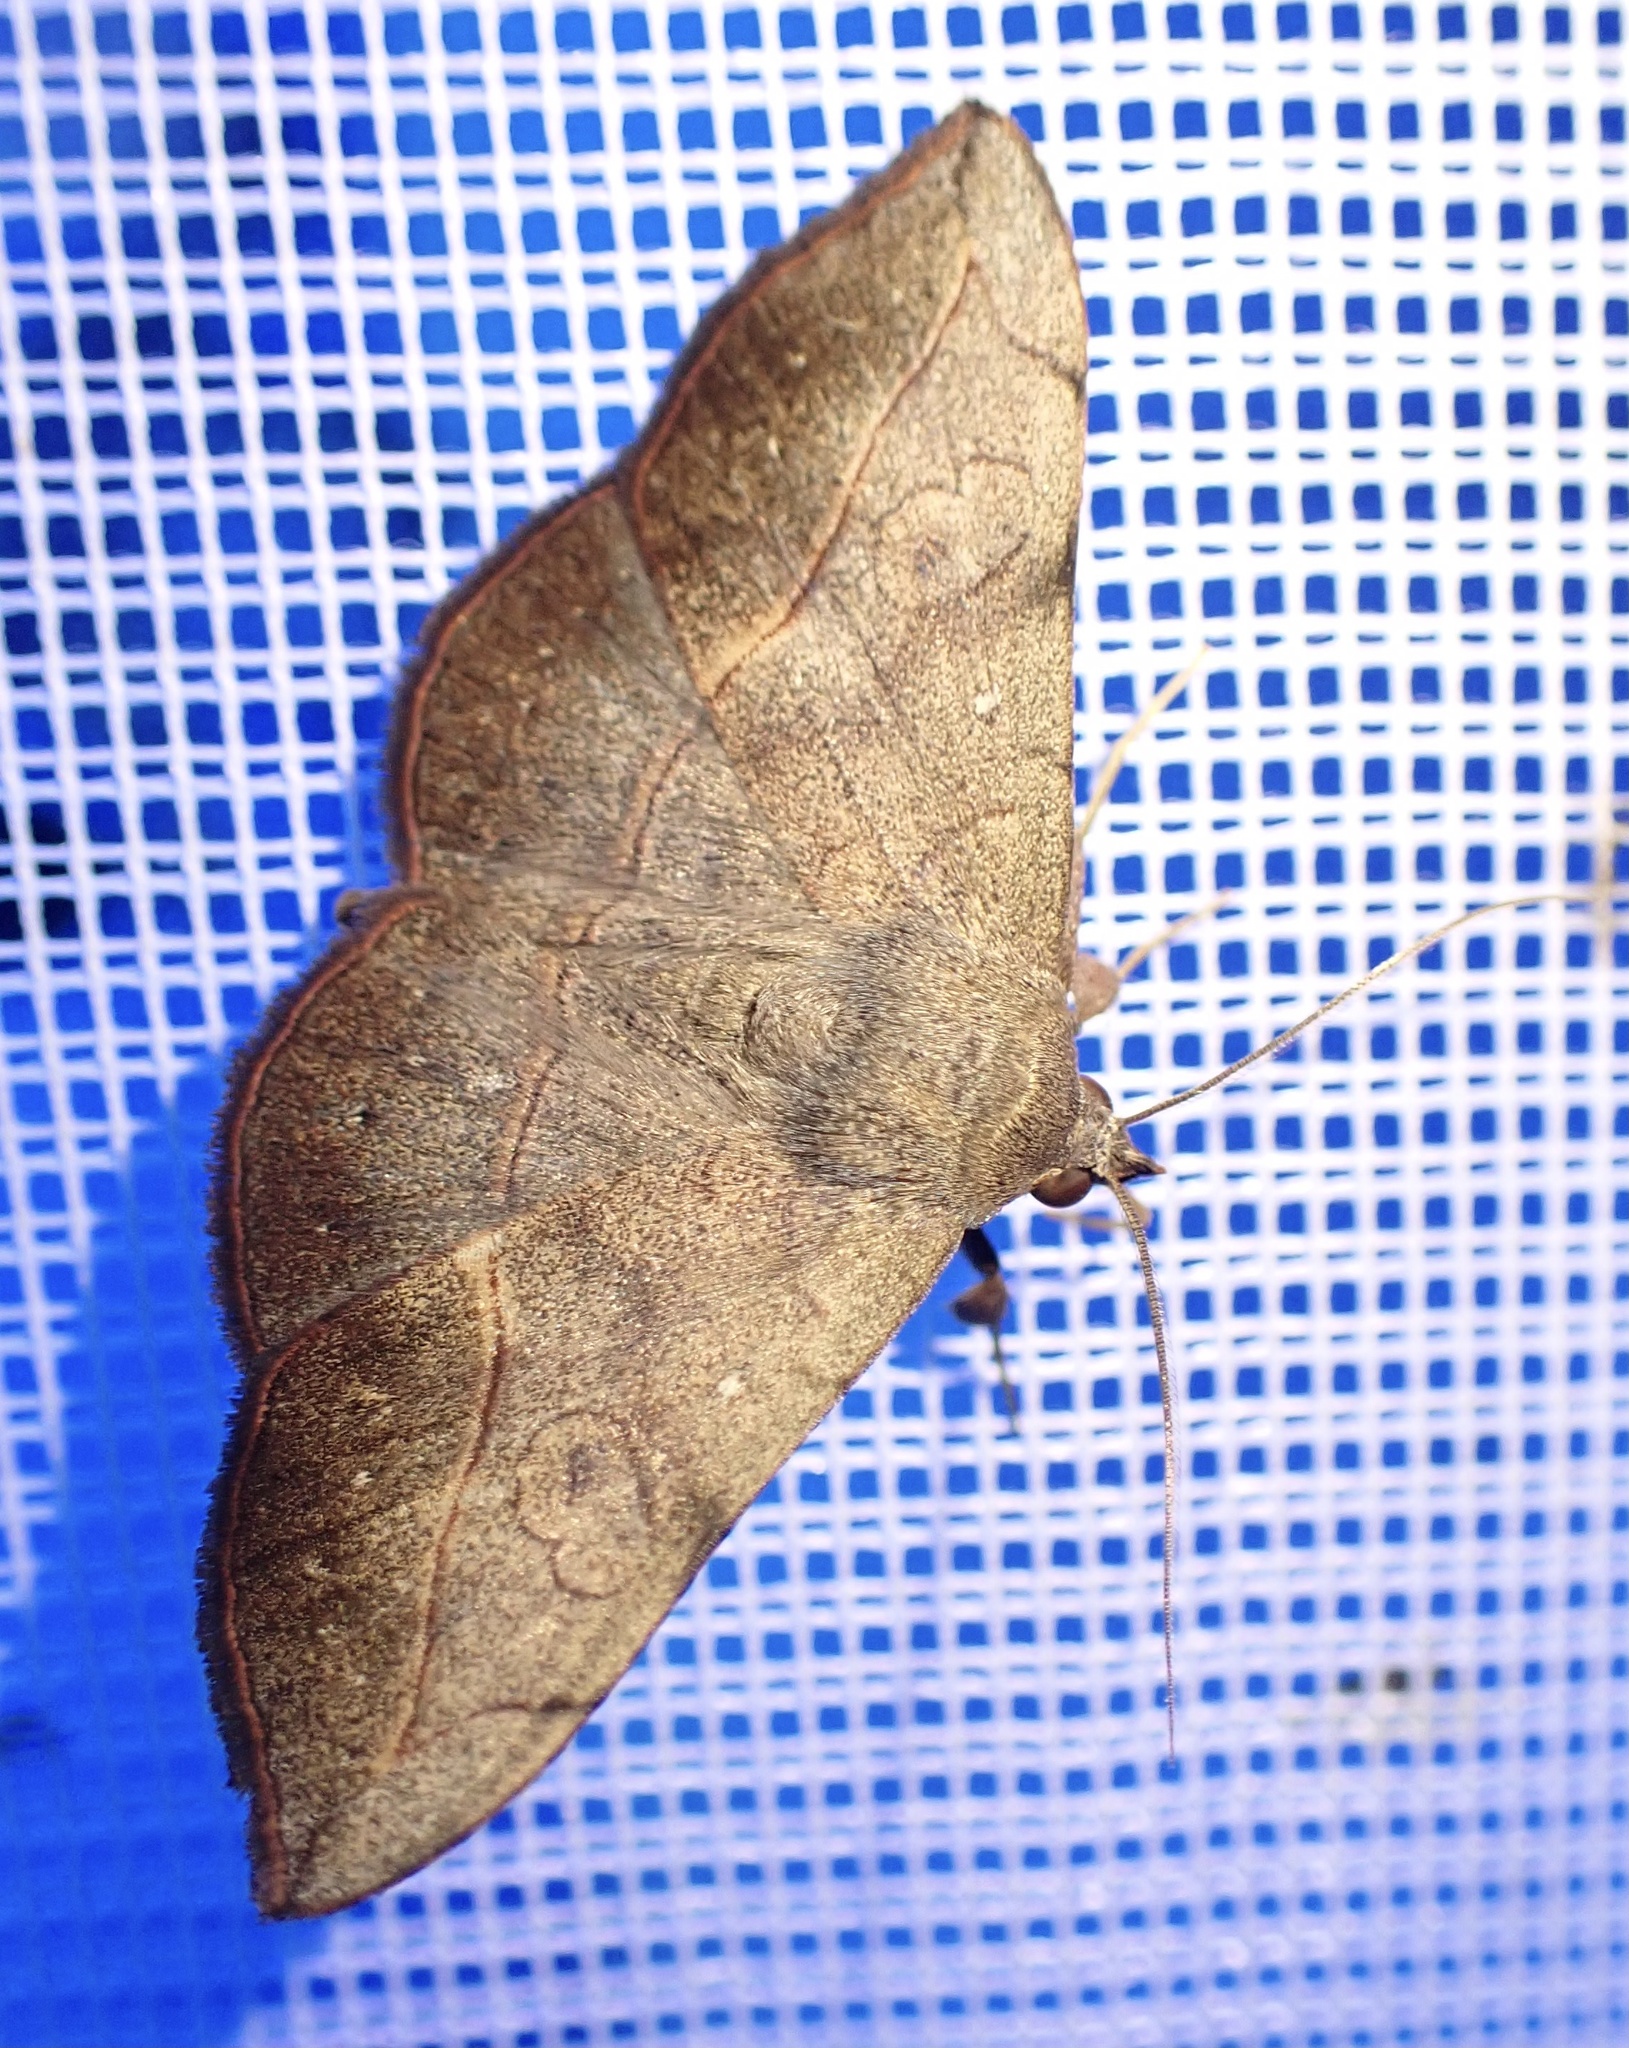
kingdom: Animalia
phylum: Arthropoda
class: Insecta
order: Lepidoptera
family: Erebidae
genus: Anticarsia
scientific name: Anticarsia irrorata
